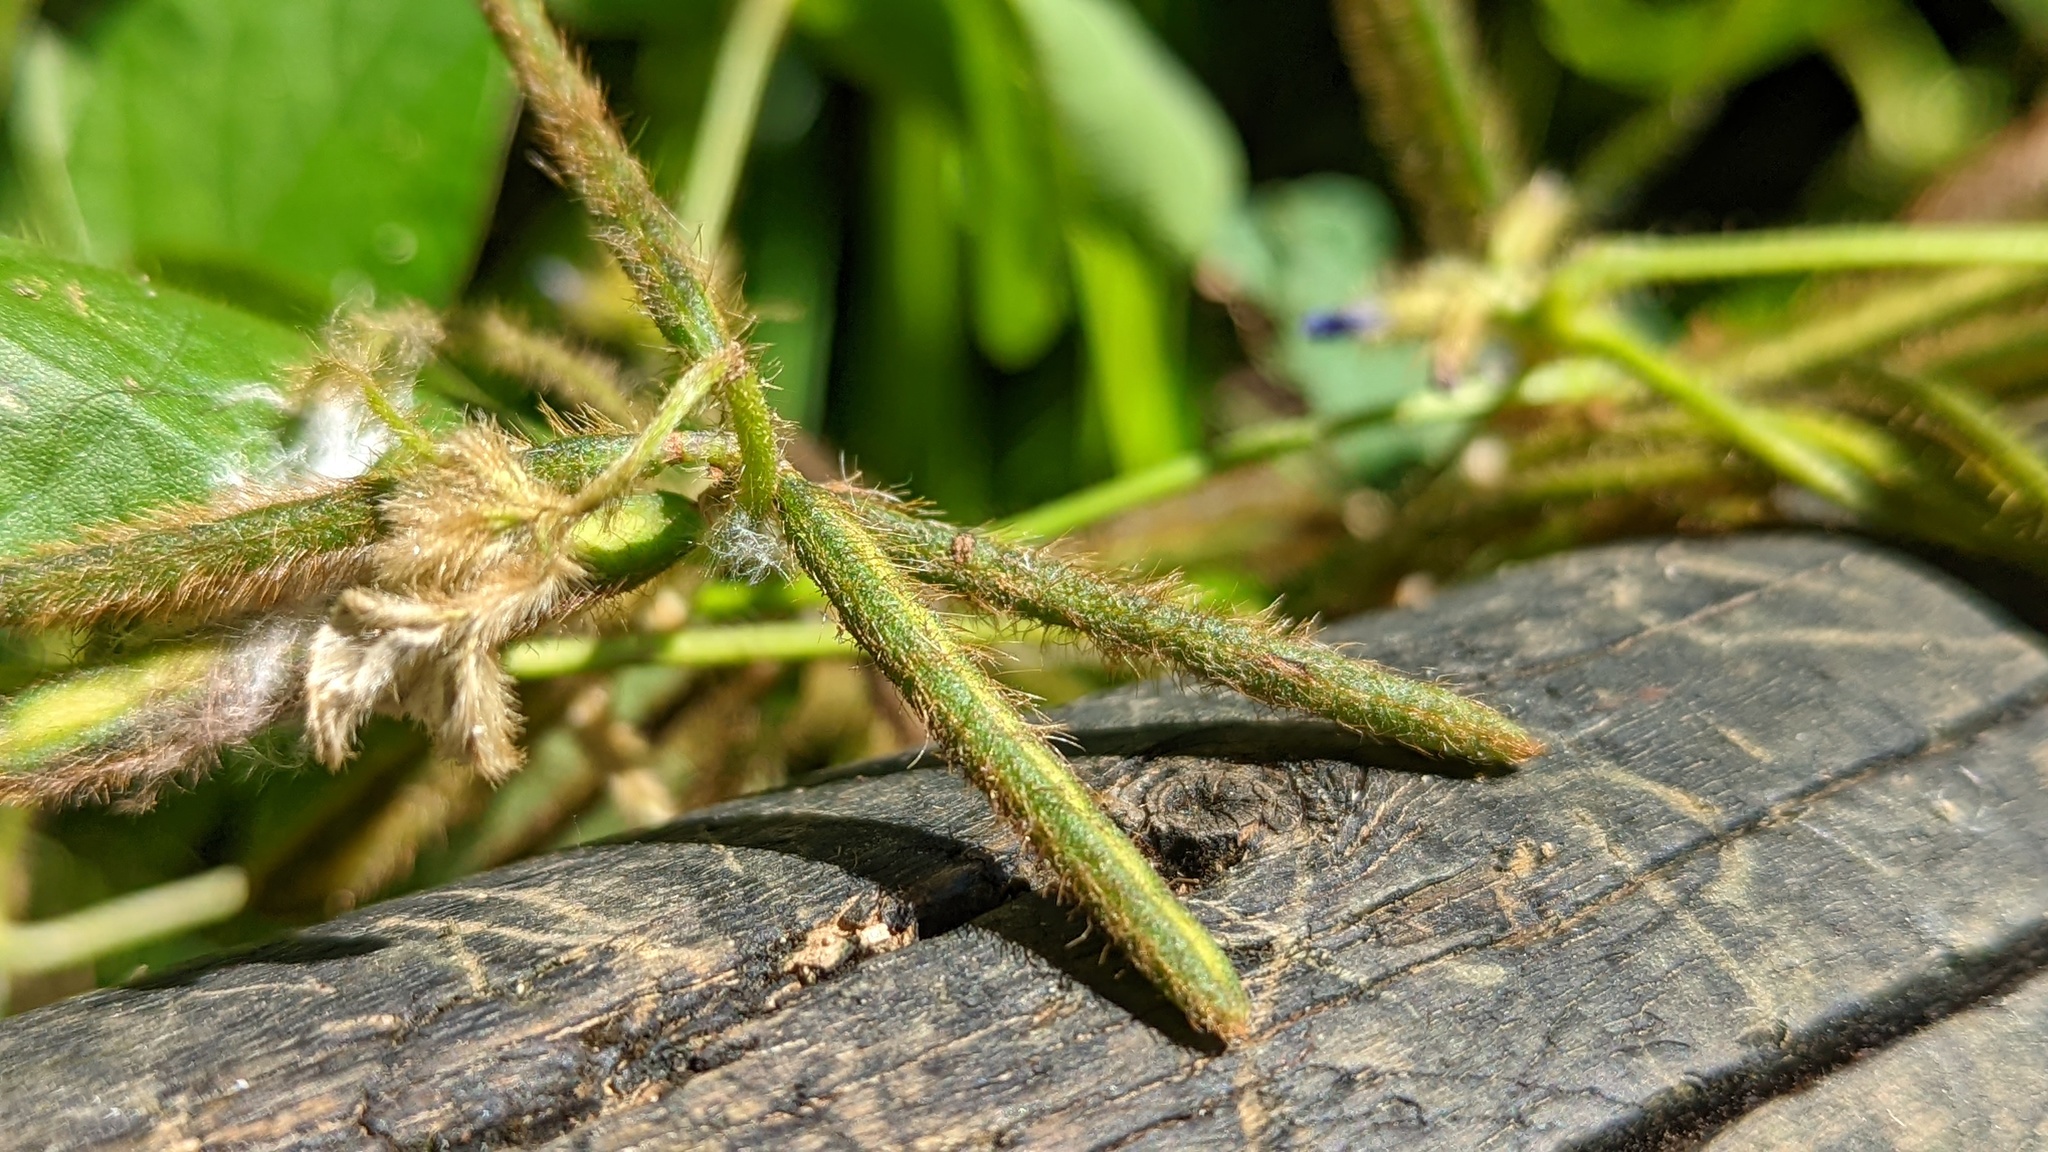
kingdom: Plantae
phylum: Tracheophyta
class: Magnoliopsida
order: Fabales
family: Fabaceae
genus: Calopogonium
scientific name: Calopogonium mucunoides
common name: Calopo
